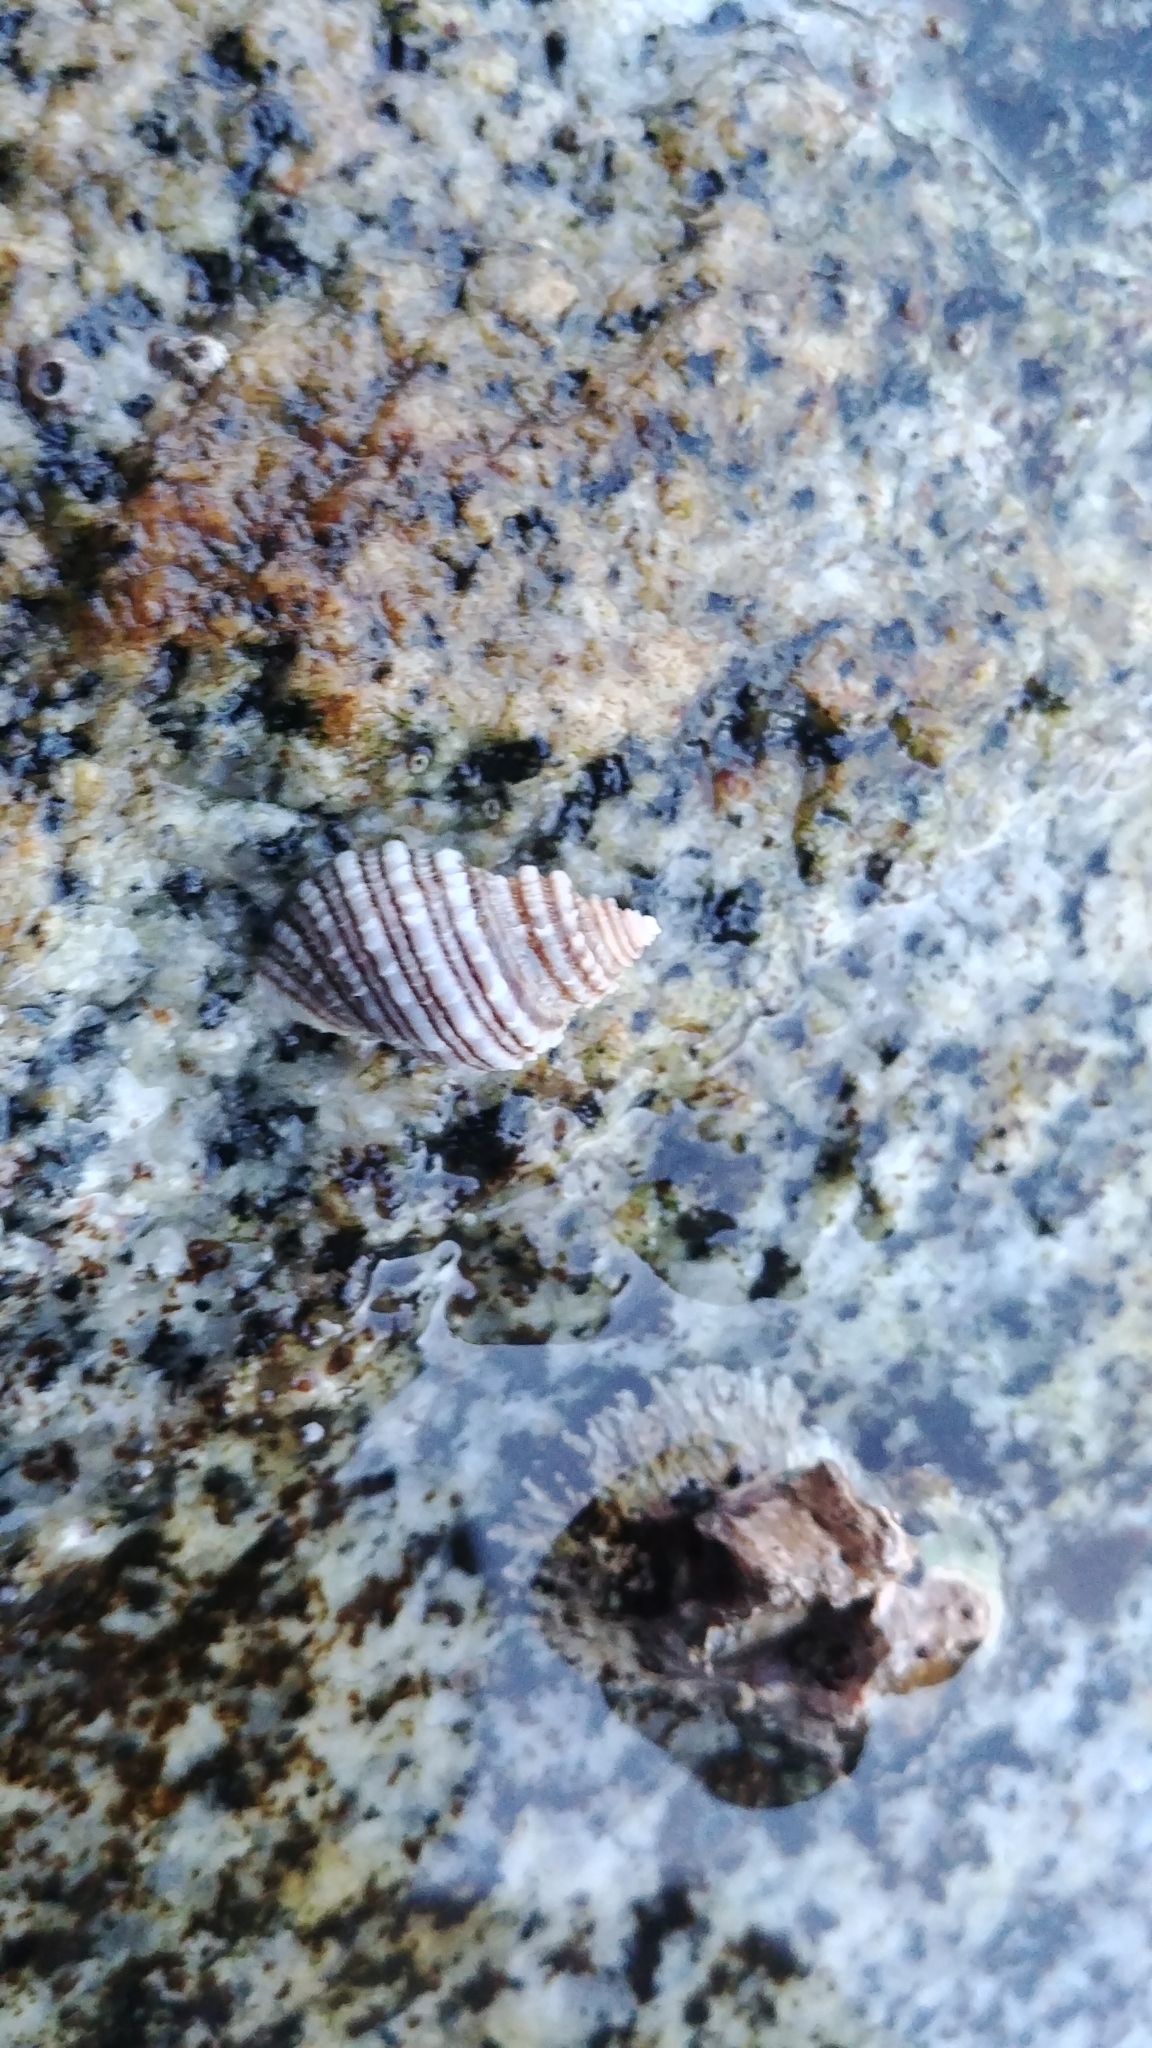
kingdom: Animalia
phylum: Mollusca
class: Gastropoda
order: Neogastropoda
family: Muricidae
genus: Nucella
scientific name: Nucella ostrina
